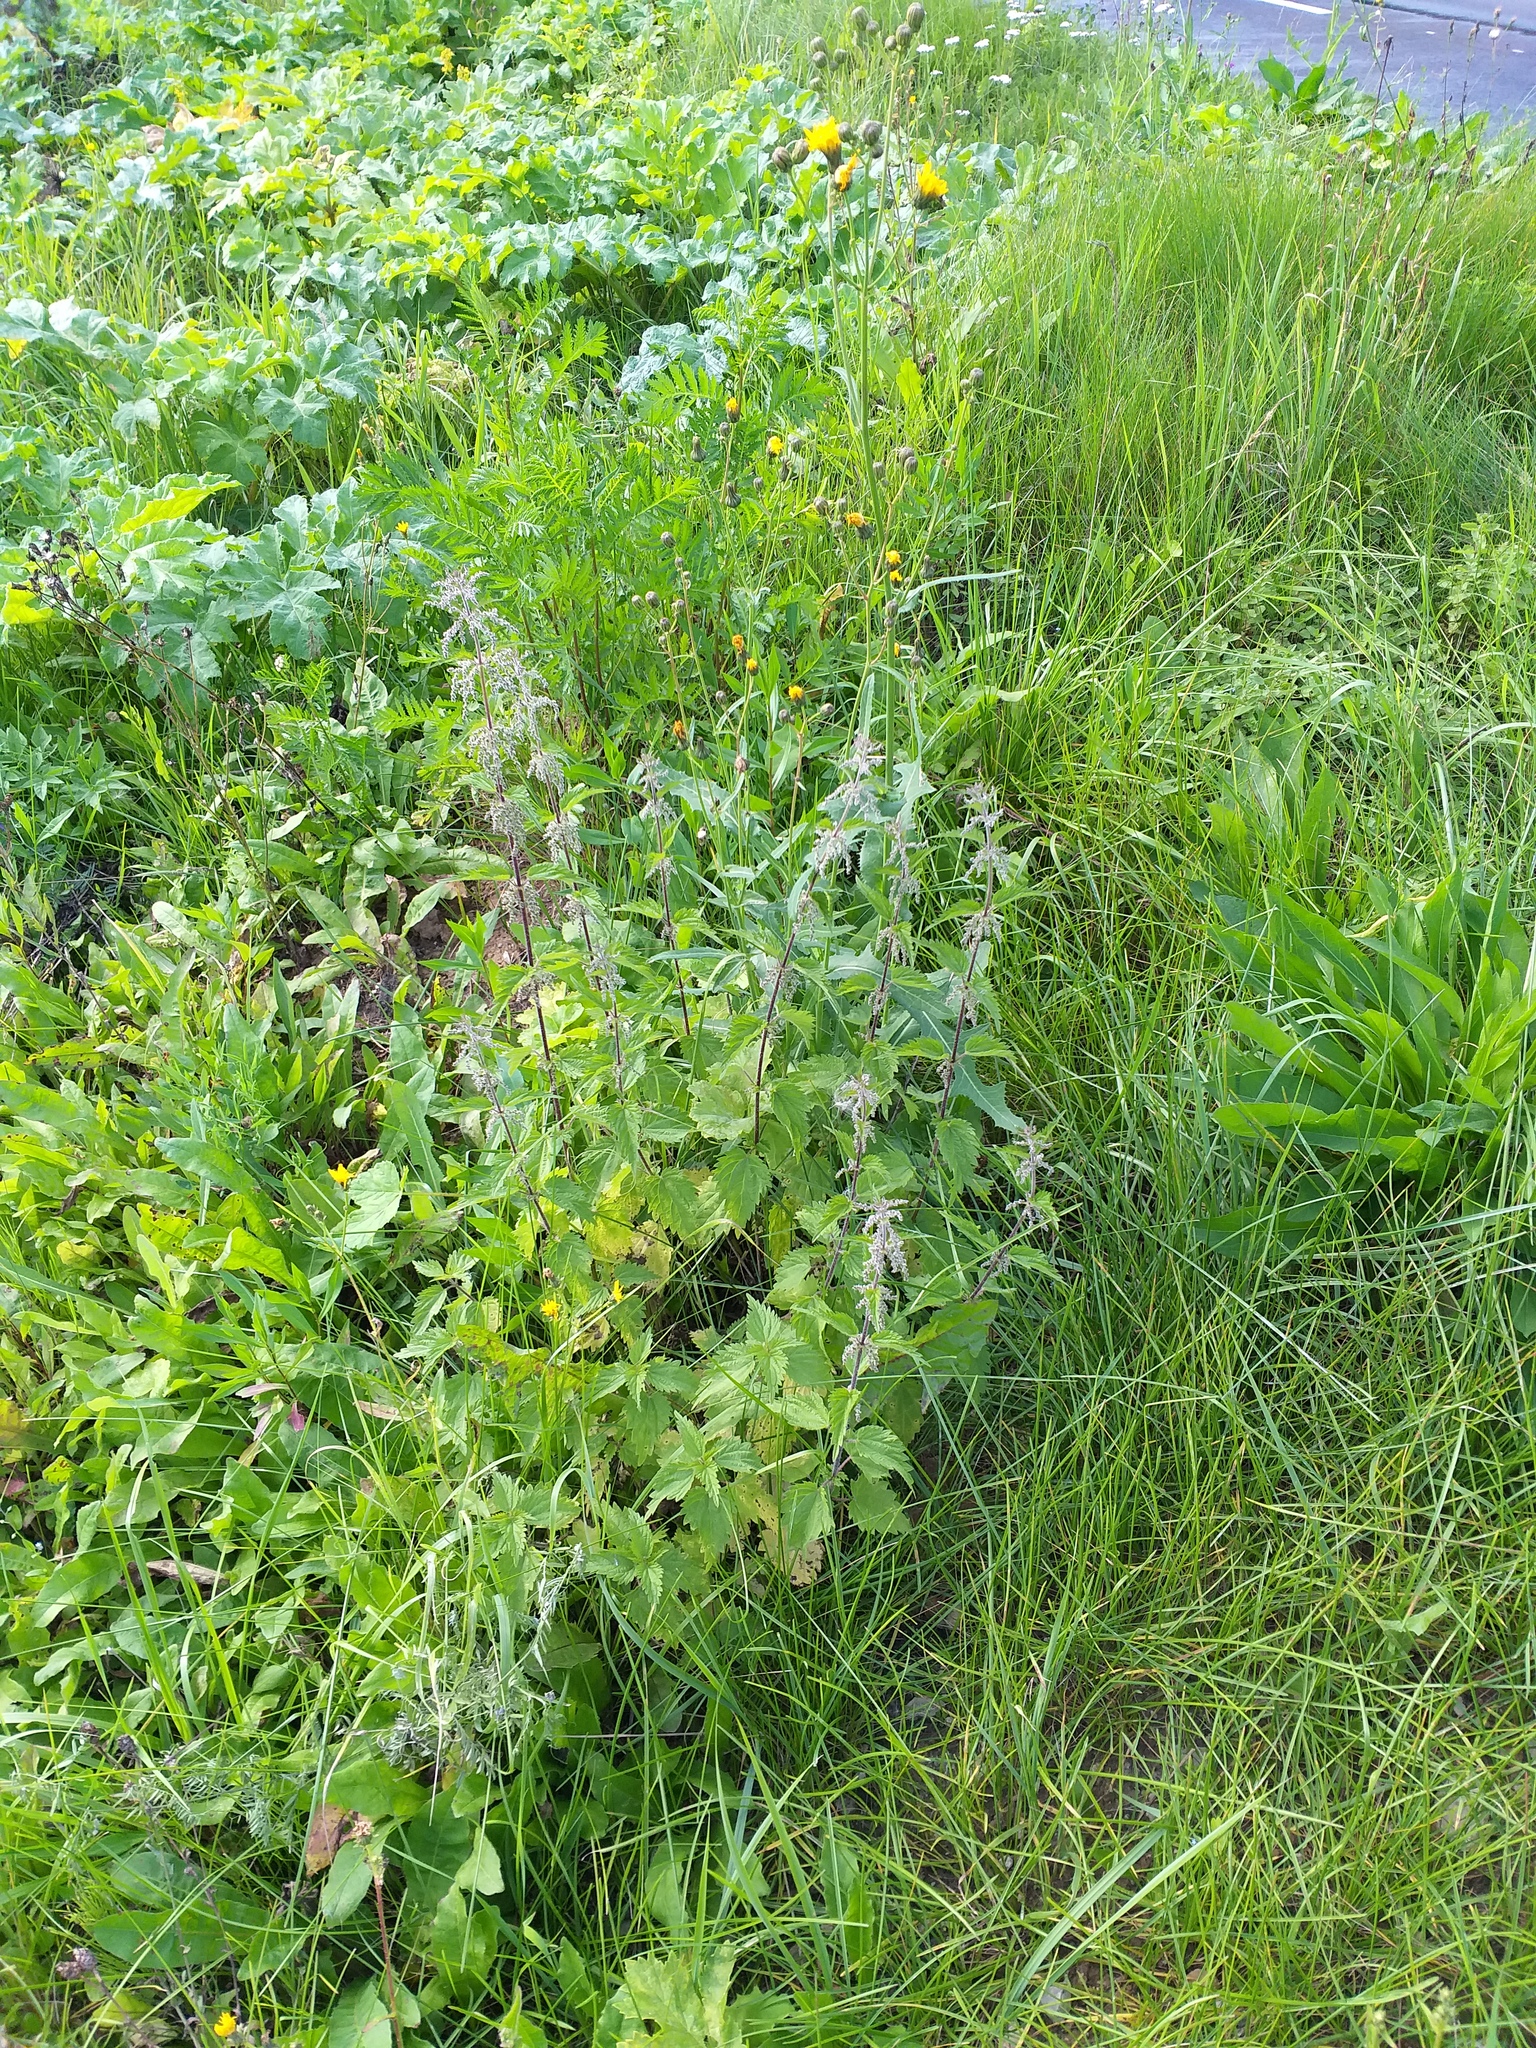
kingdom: Plantae
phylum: Tracheophyta
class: Magnoliopsida
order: Rosales
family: Urticaceae
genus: Urtica
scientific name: Urtica dioica
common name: Common nettle
